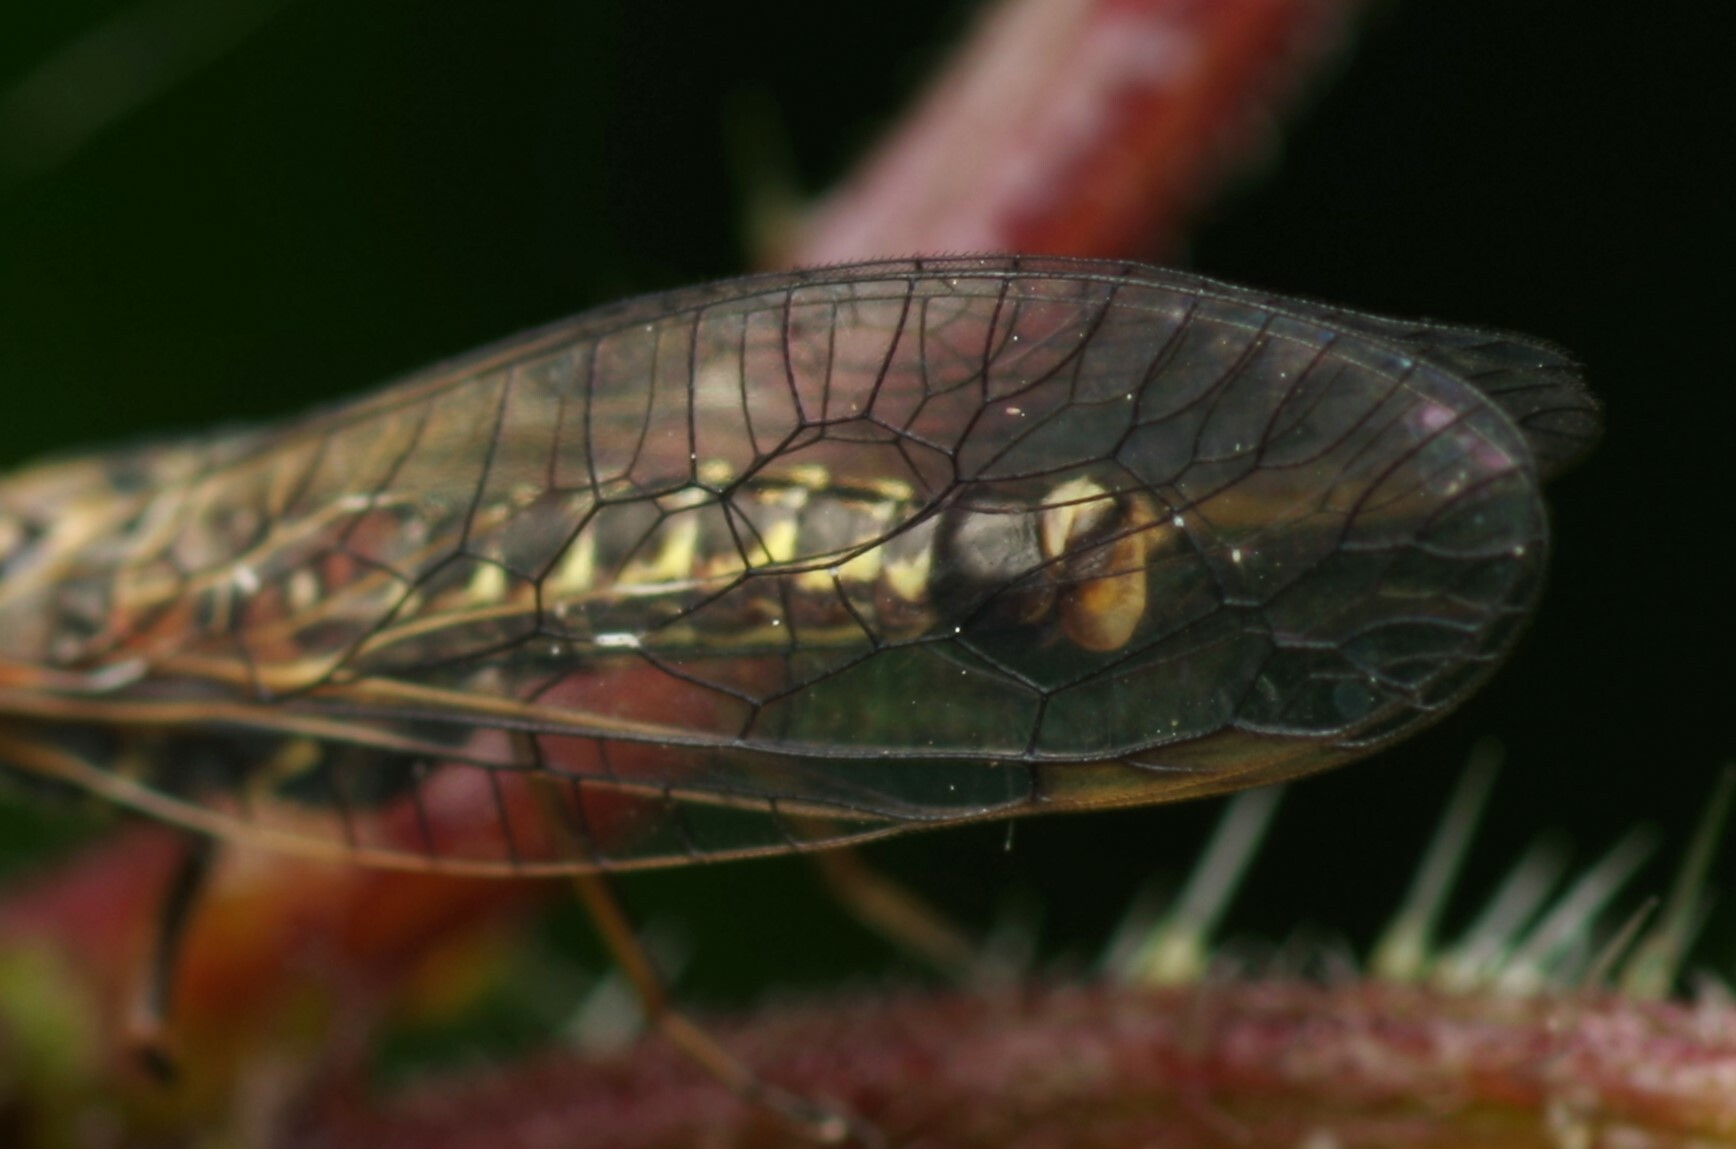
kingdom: Animalia
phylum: Arthropoda
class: Insecta
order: Raphidioptera
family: Raphidiidae
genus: Xanthostigma
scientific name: Xanthostigma xanthostigma
